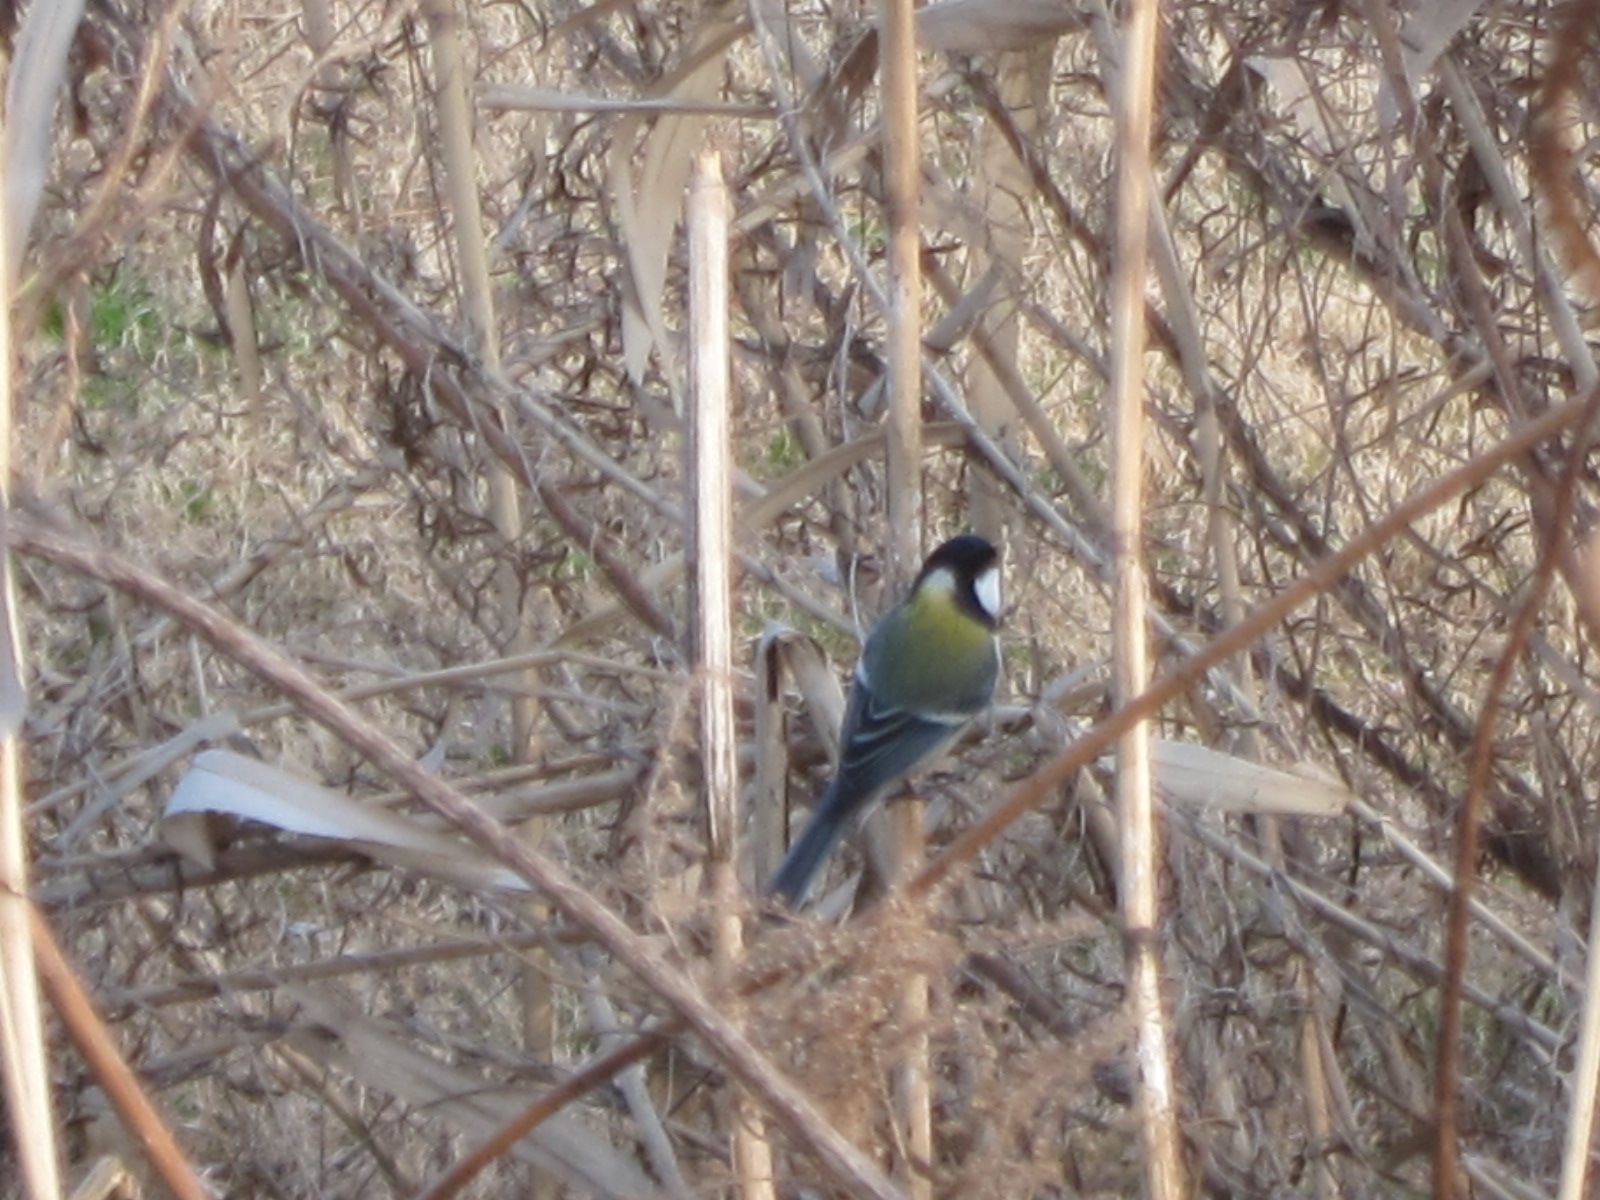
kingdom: Animalia
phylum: Chordata
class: Aves
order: Passeriformes
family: Paridae
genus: Parus
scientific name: Parus minor
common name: Japanese tit
